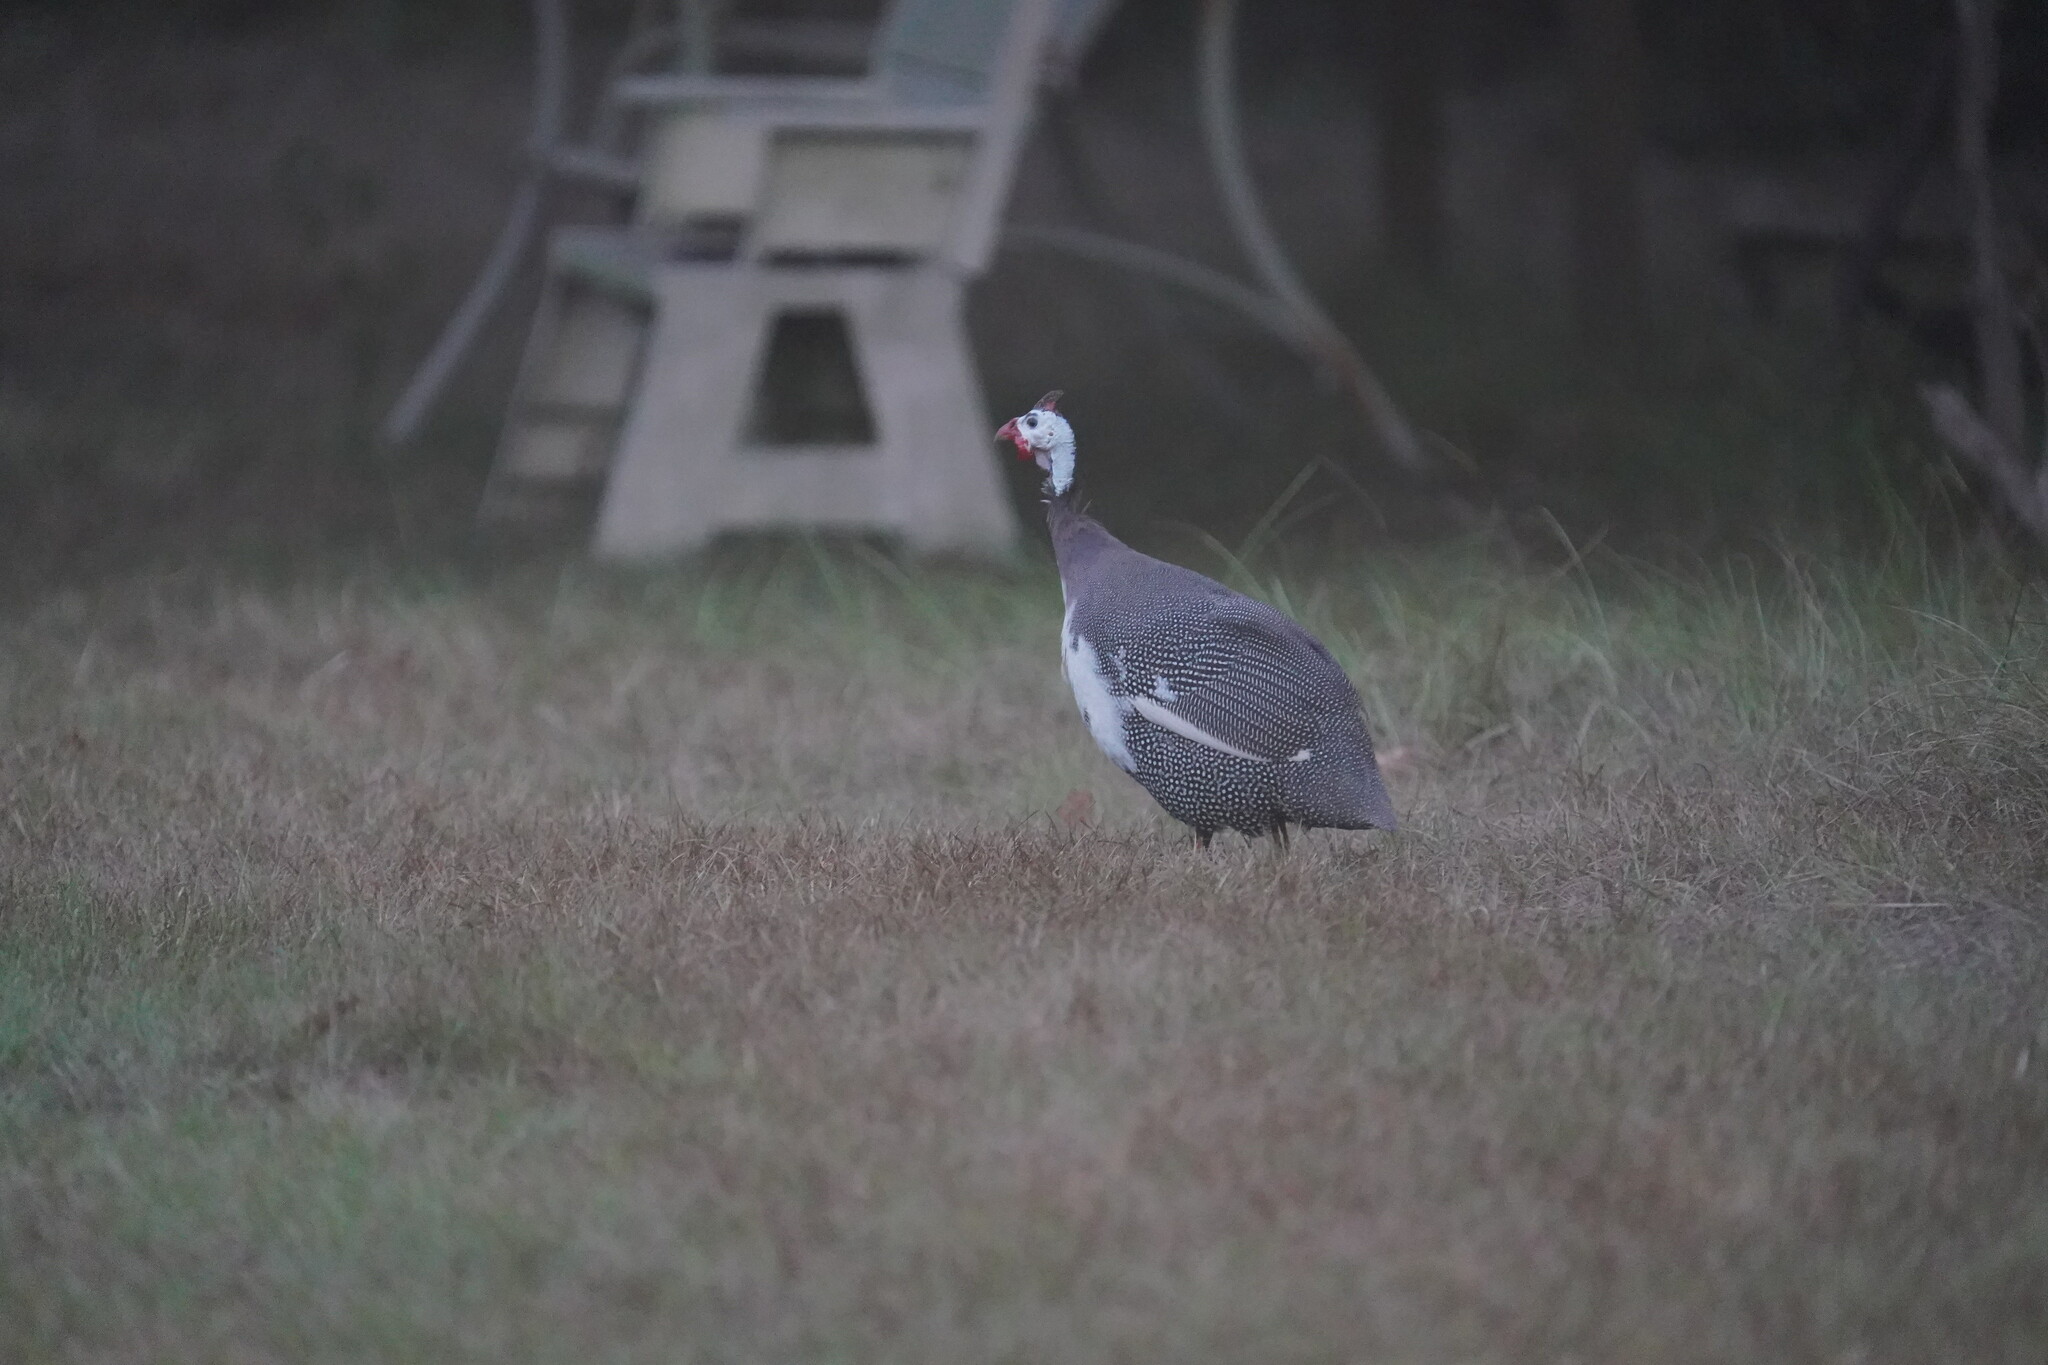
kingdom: Animalia
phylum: Chordata
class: Aves
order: Galliformes
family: Numididae
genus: Numida
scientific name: Numida meleagris
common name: Helmeted guineafowl
